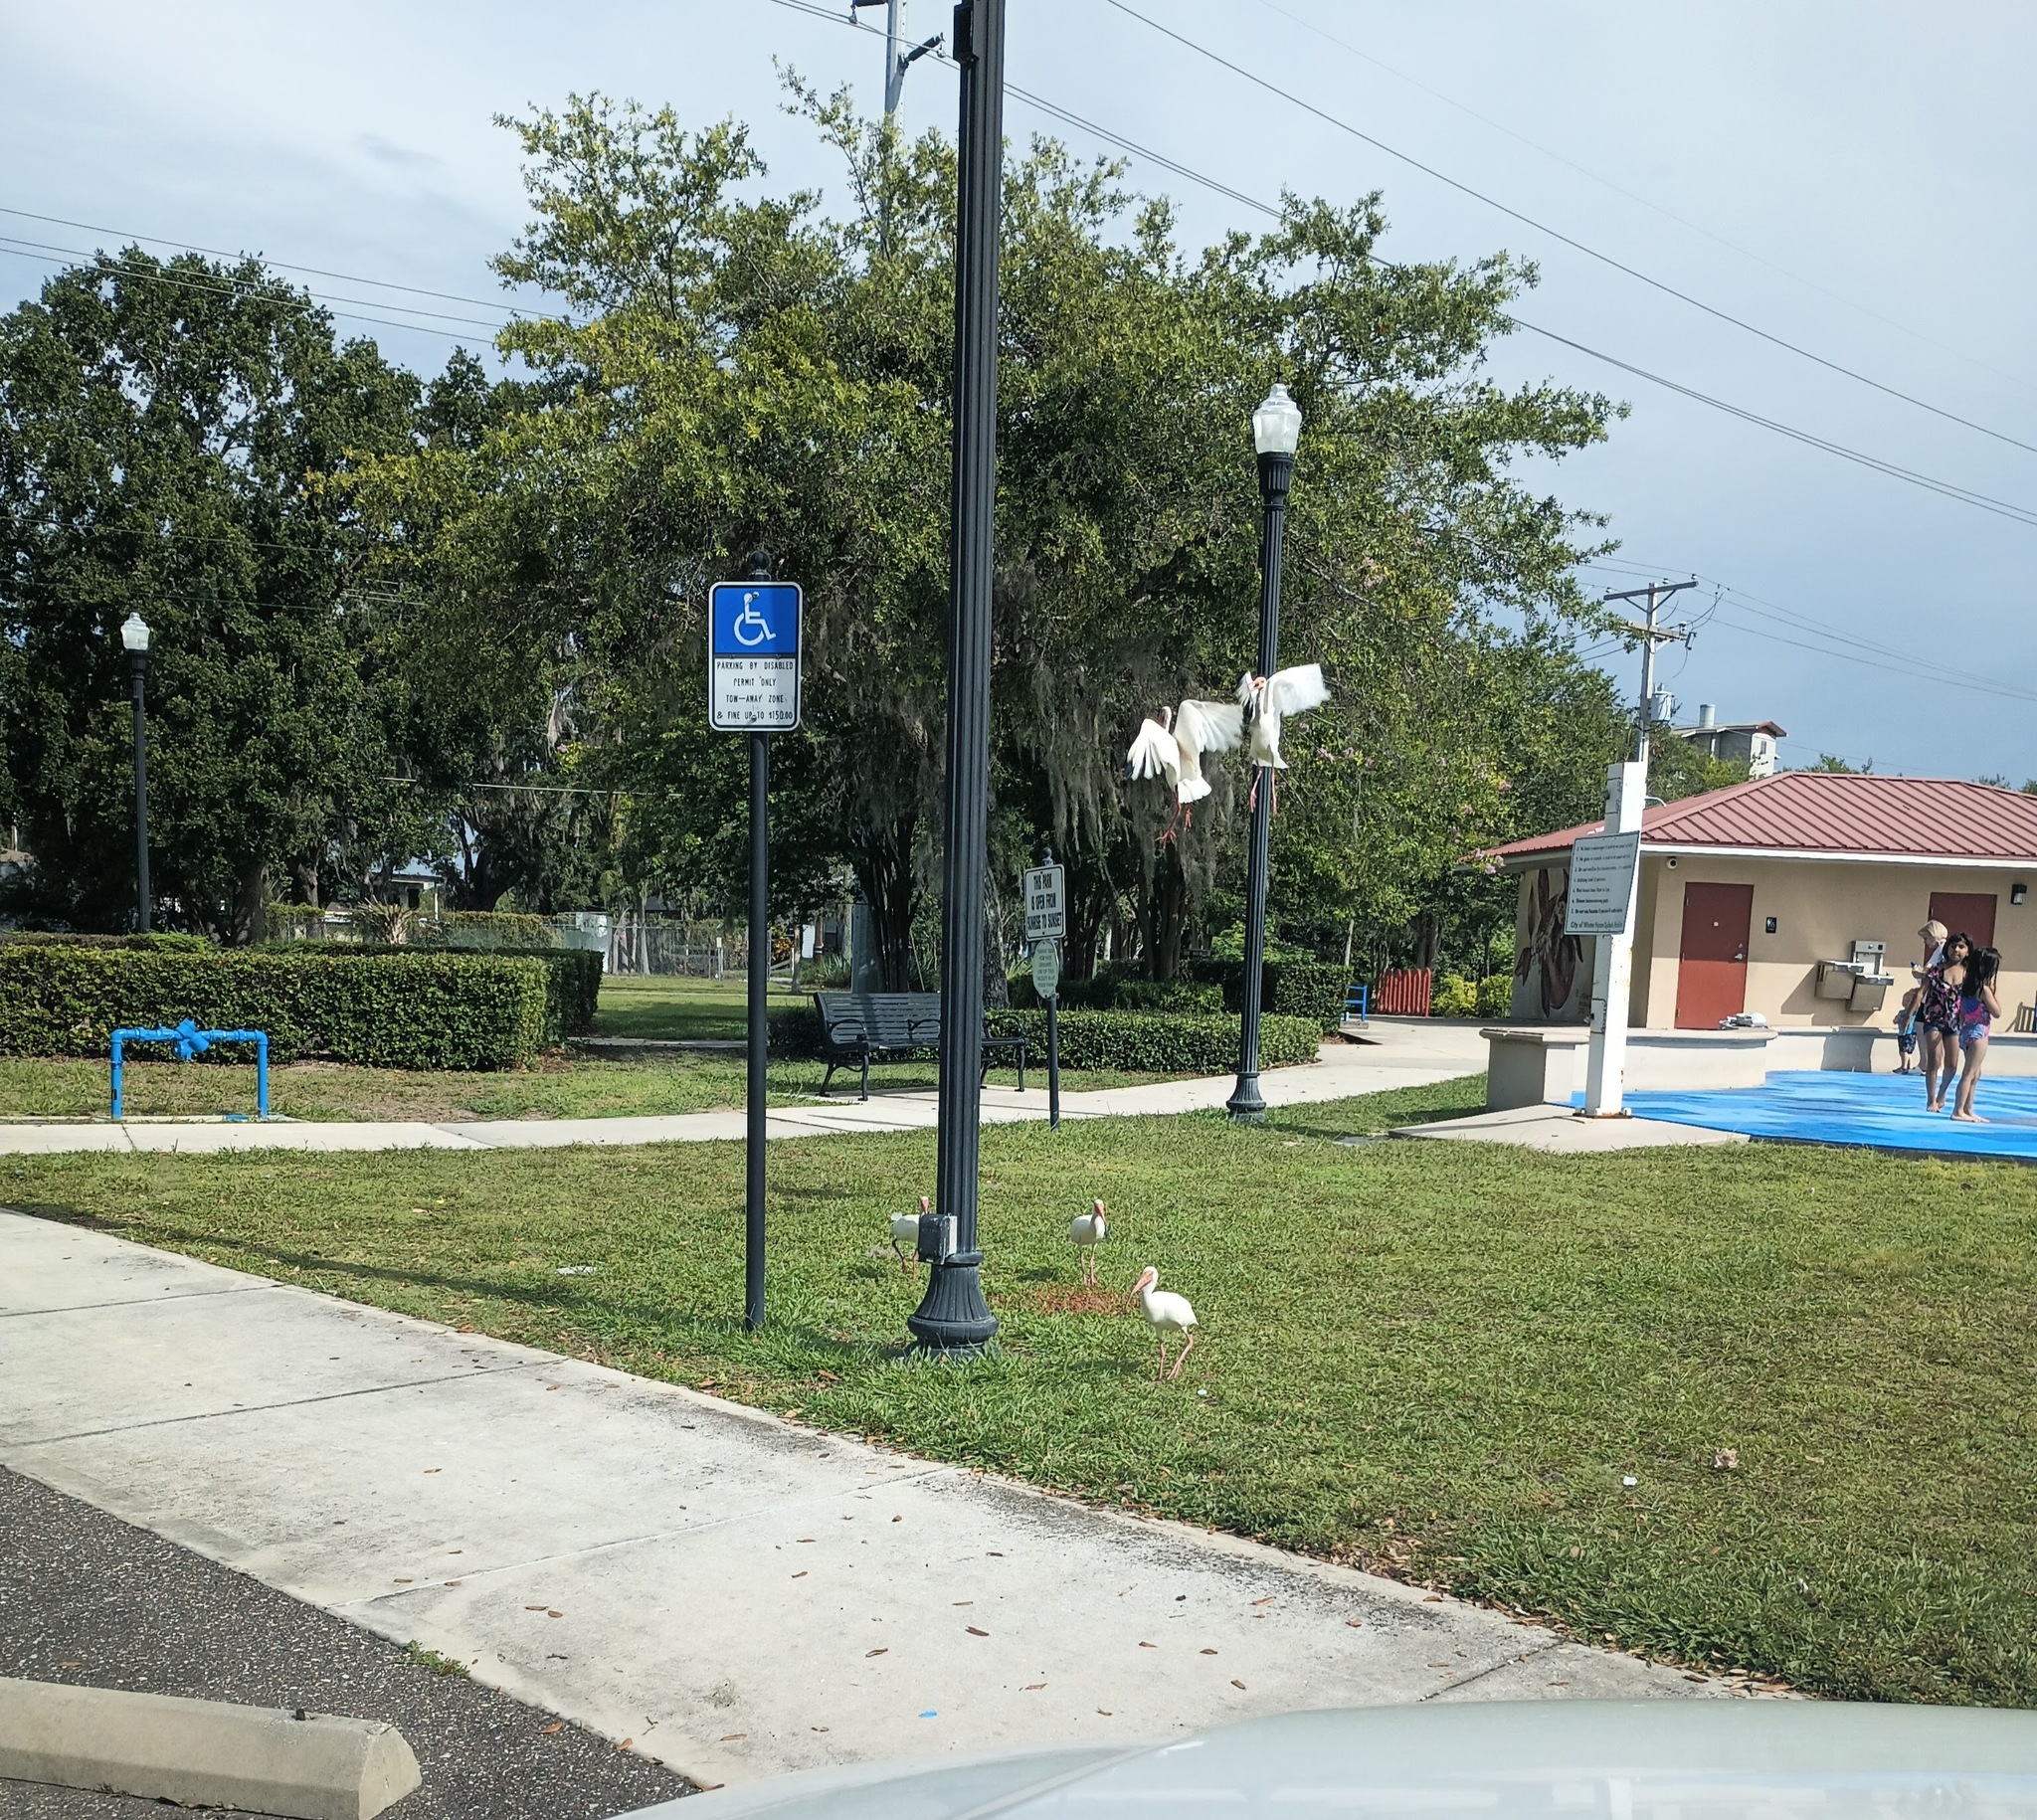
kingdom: Animalia
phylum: Chordata
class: Aves
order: Pelecaniformes
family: Threskiornithidae
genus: Eudocimus
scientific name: Eudocimus albus
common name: White ibis
